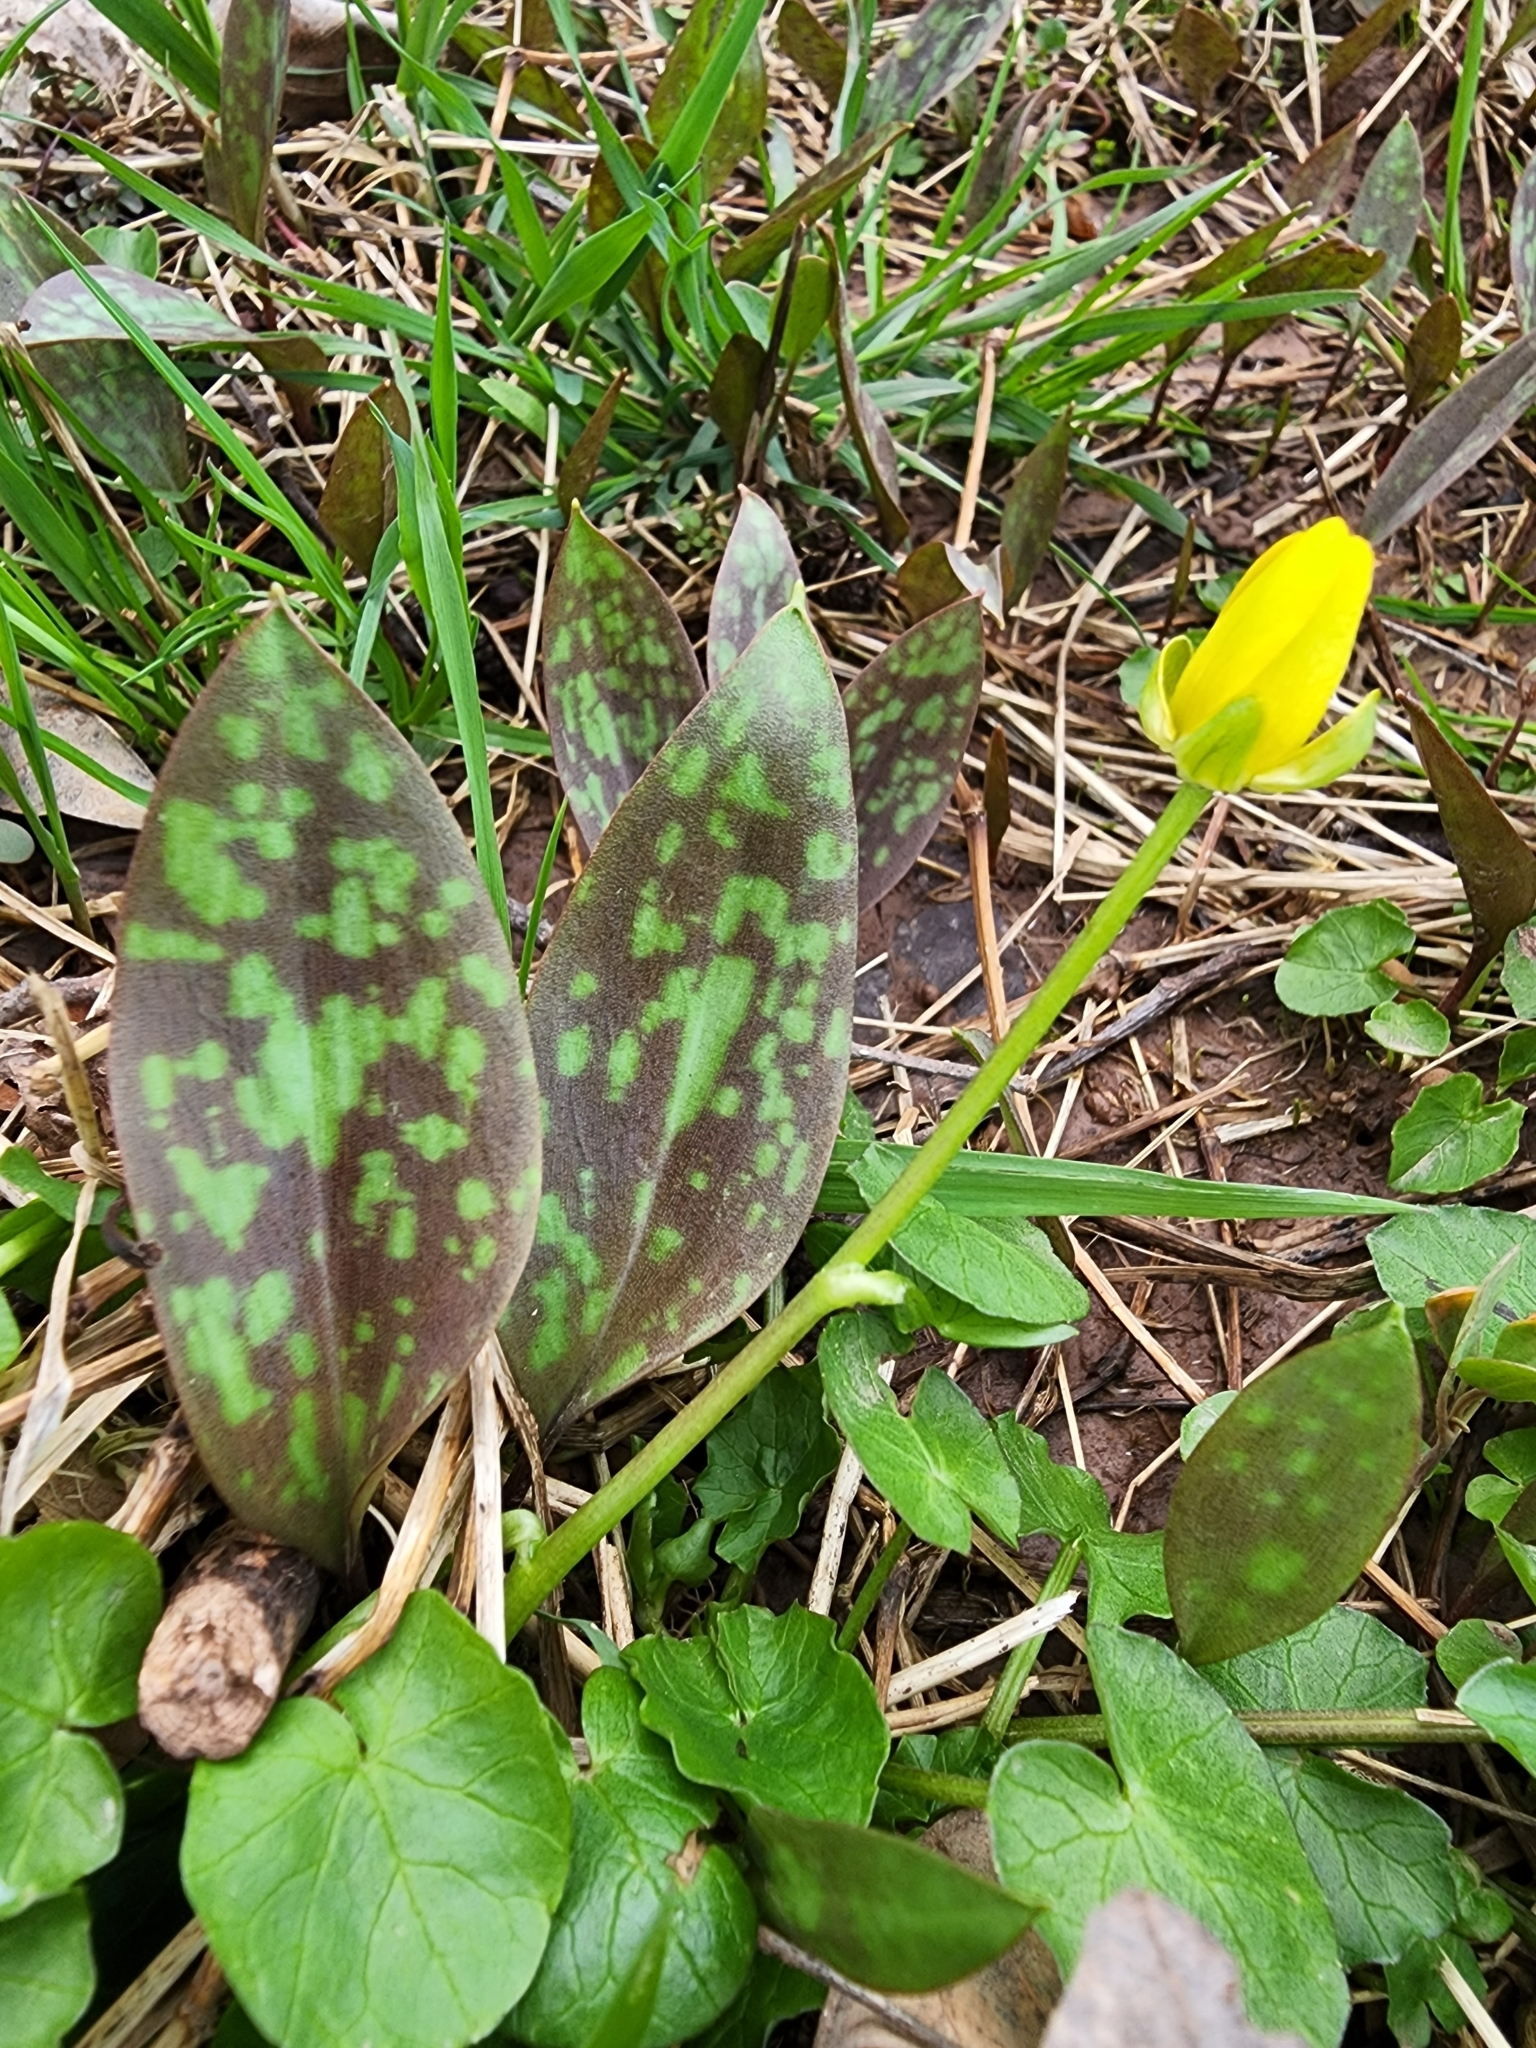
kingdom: Plantae
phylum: Tracheophyta
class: Liliopsida
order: Liliales
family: Liliaceae
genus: Erythronium
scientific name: Erythronium americanum
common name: Yellow adder's-tongue
